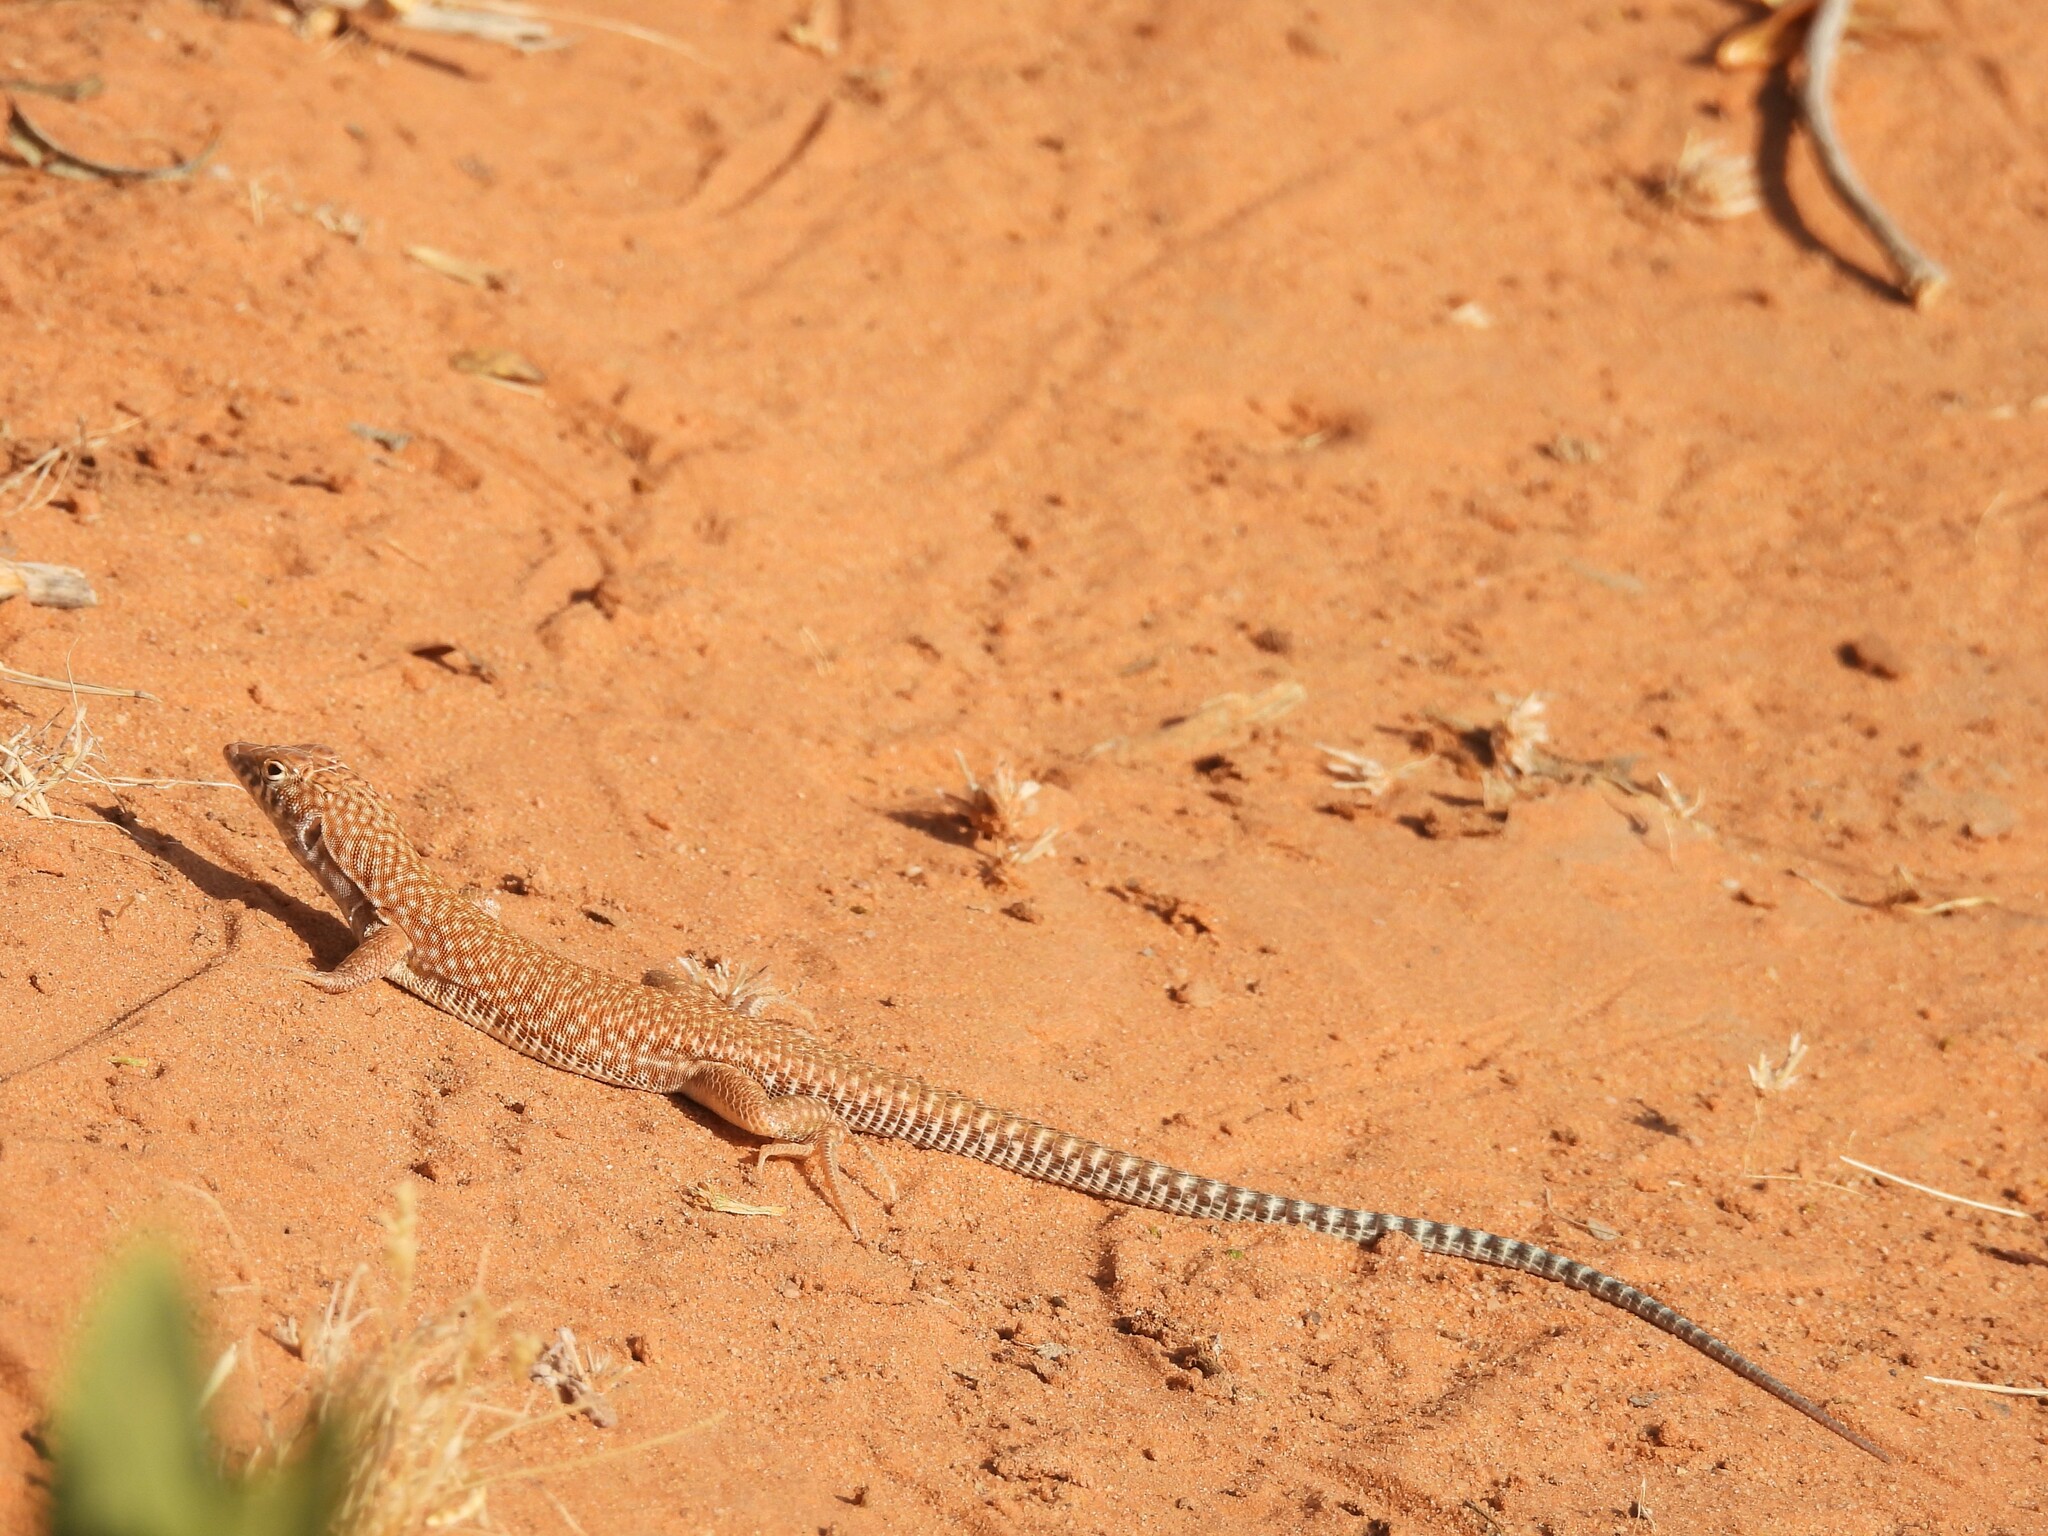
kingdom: Animalia
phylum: Chordata
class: Squamata
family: Lacertidae
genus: Acanthodactylus
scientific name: Acanthodactylus schmidti
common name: Schmidt's fringe-toed lizard
